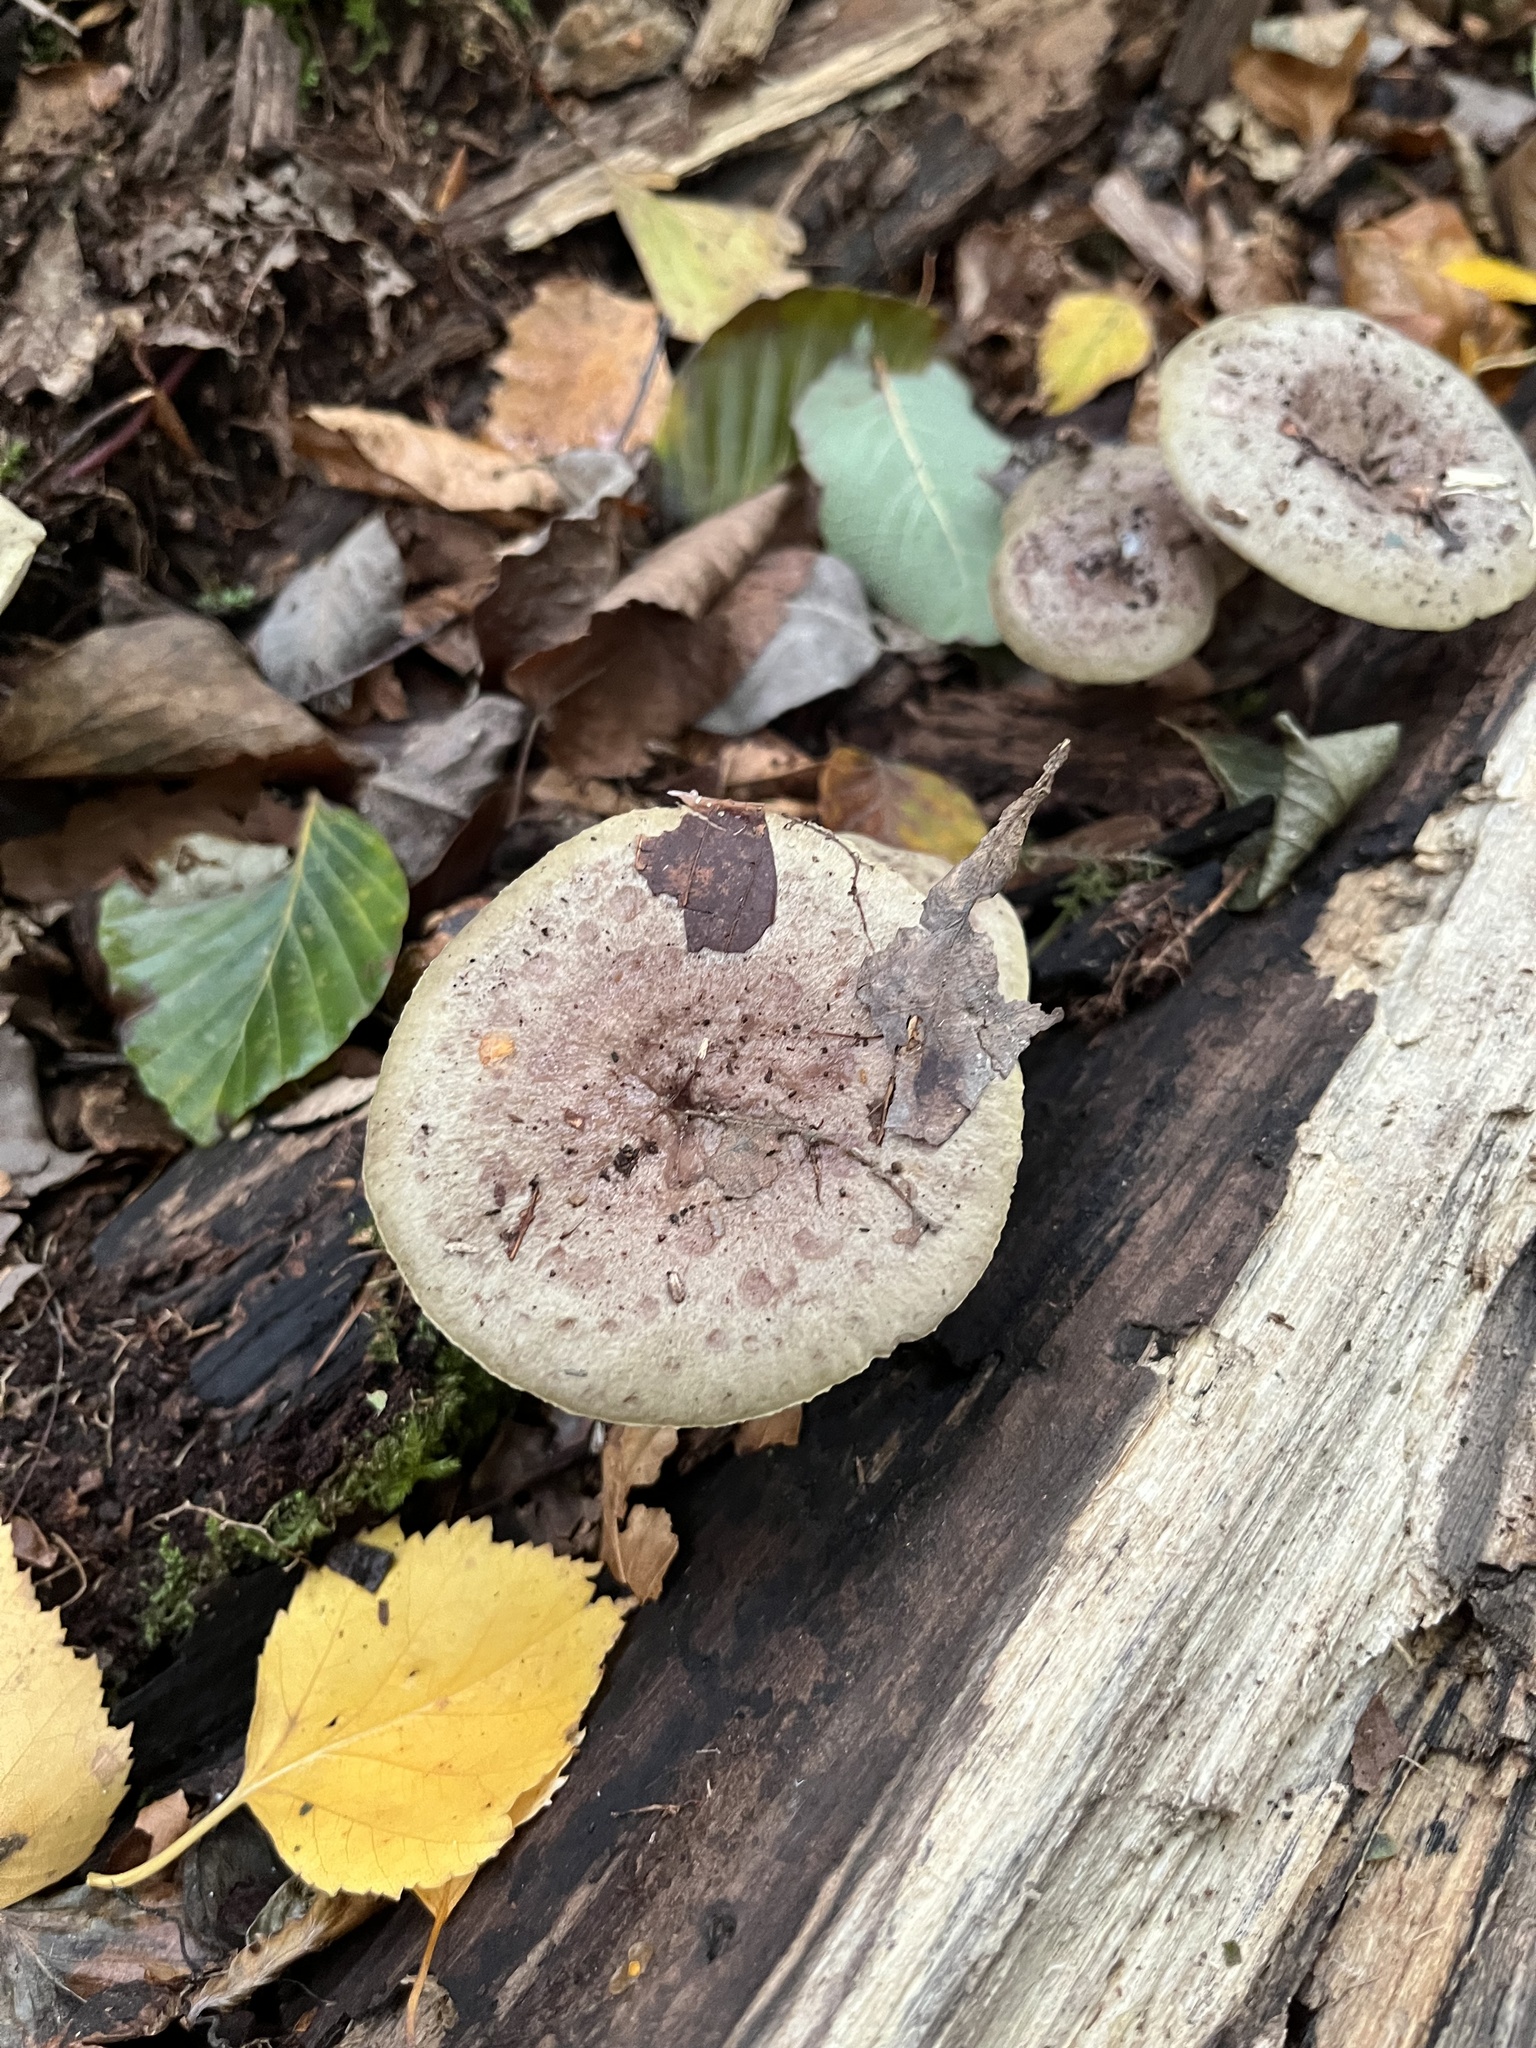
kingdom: Fungi
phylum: Basidiomycota
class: Agaricomycetes
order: Russulales
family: Russulaceae
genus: Lactarius
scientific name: Lactarius blennius
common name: Beech milkcap
